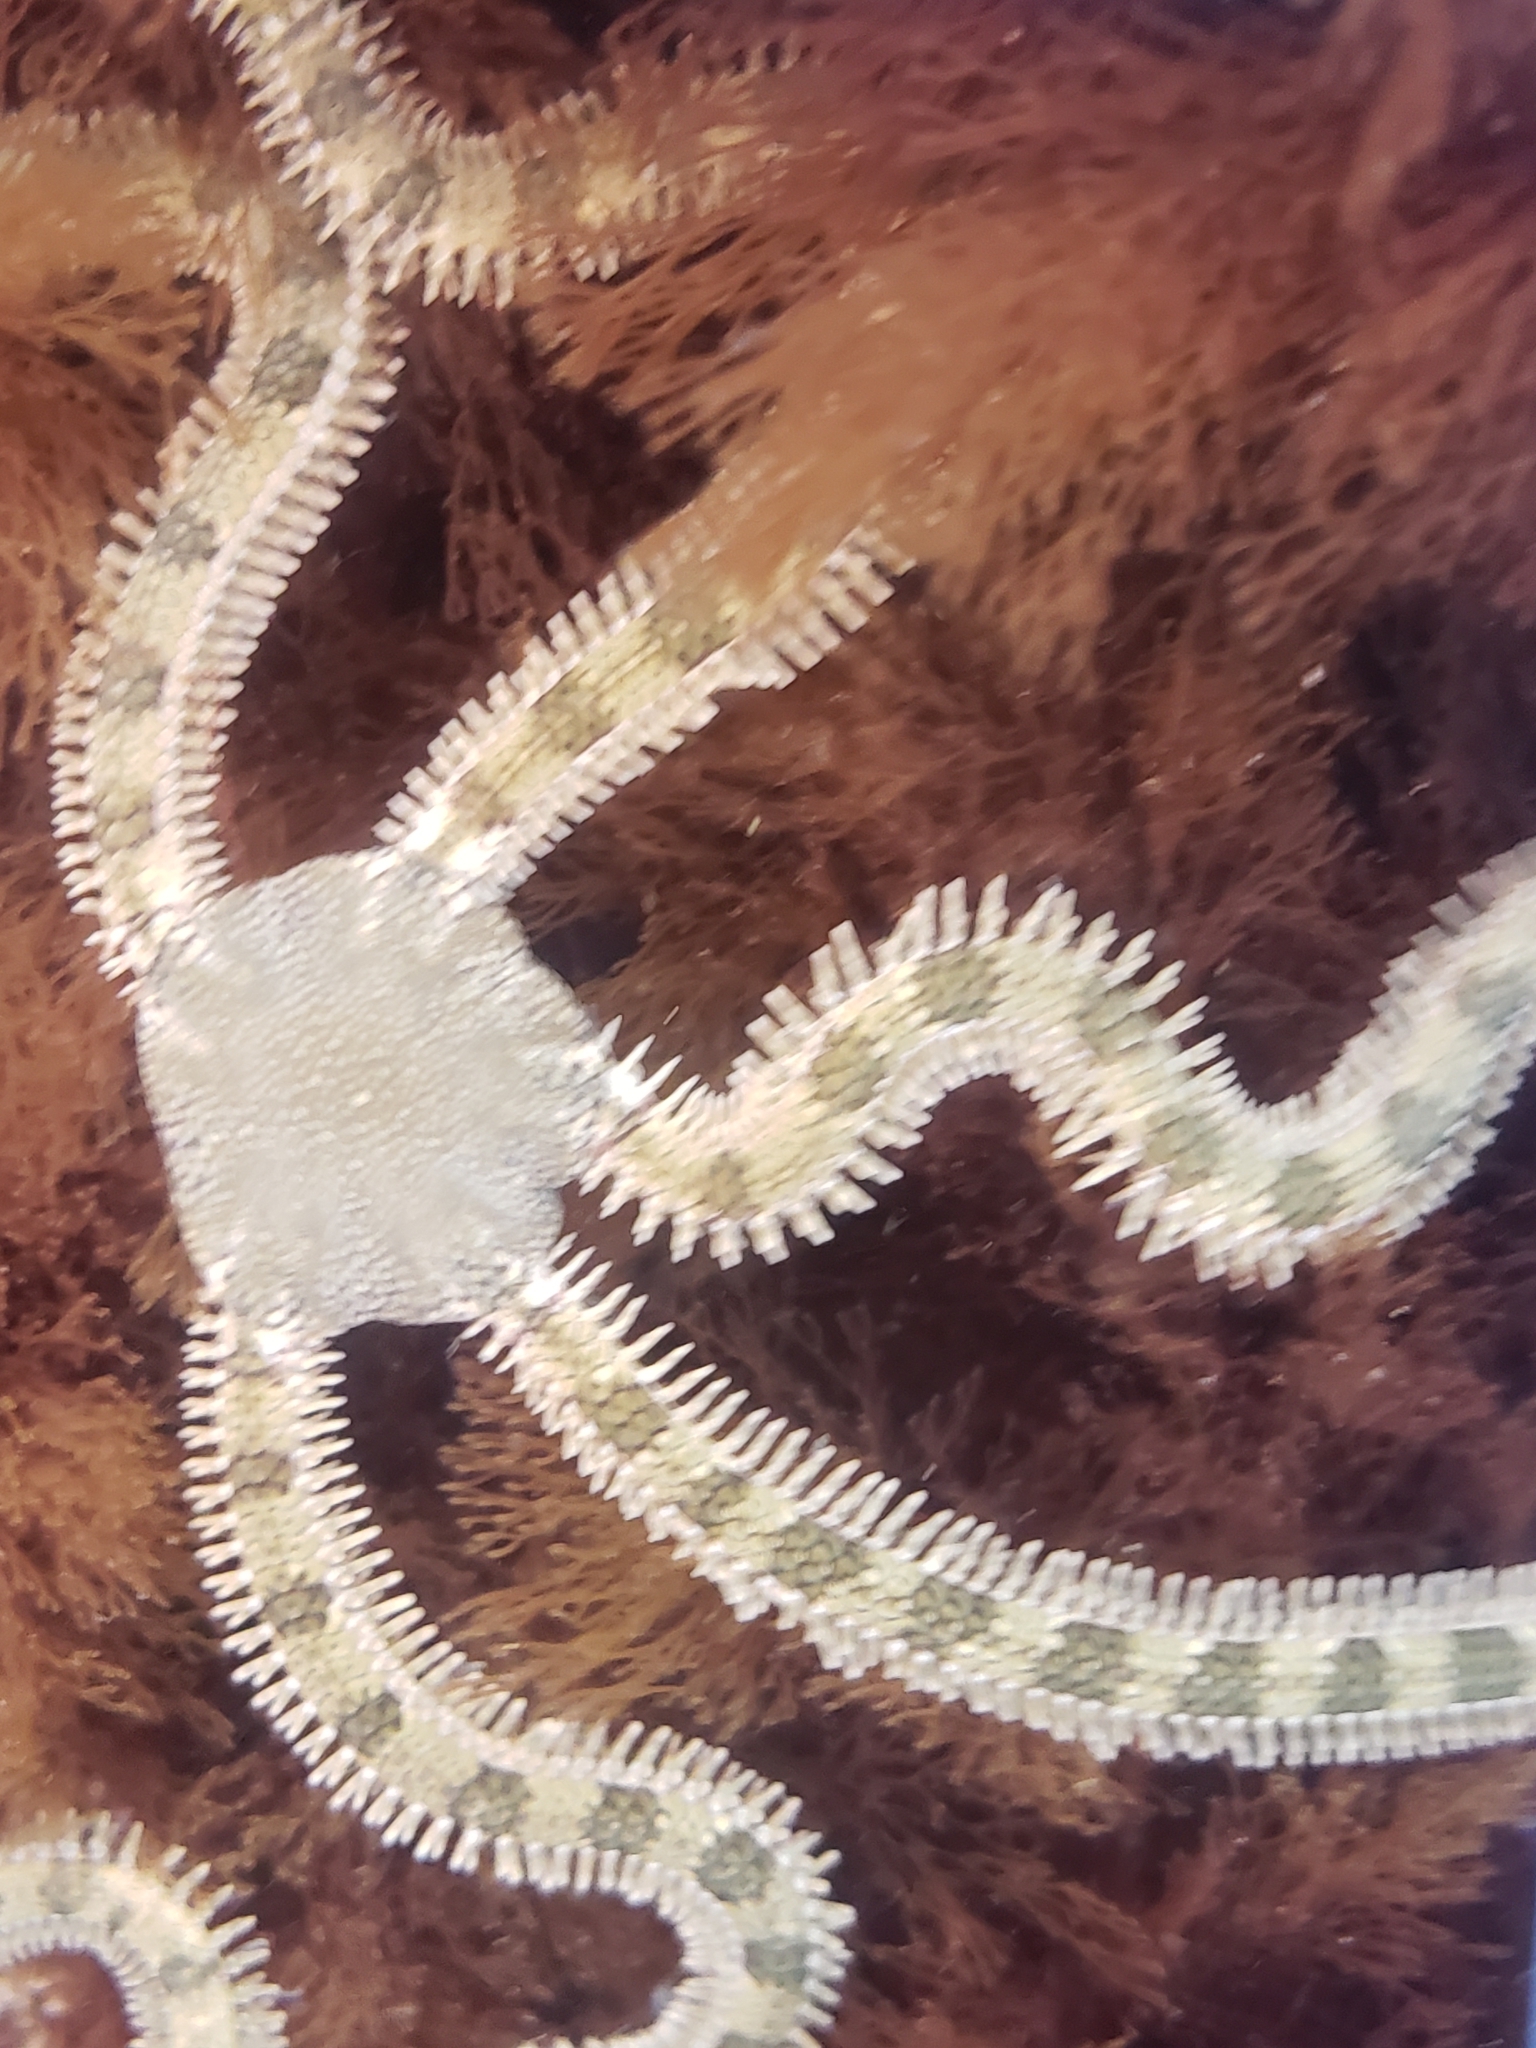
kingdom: Animalia
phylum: Echinodermata
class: Ophiuroidea
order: Amphilepidida
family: Ophionereididae
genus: Ophionereis
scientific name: Ophionereis annulata
